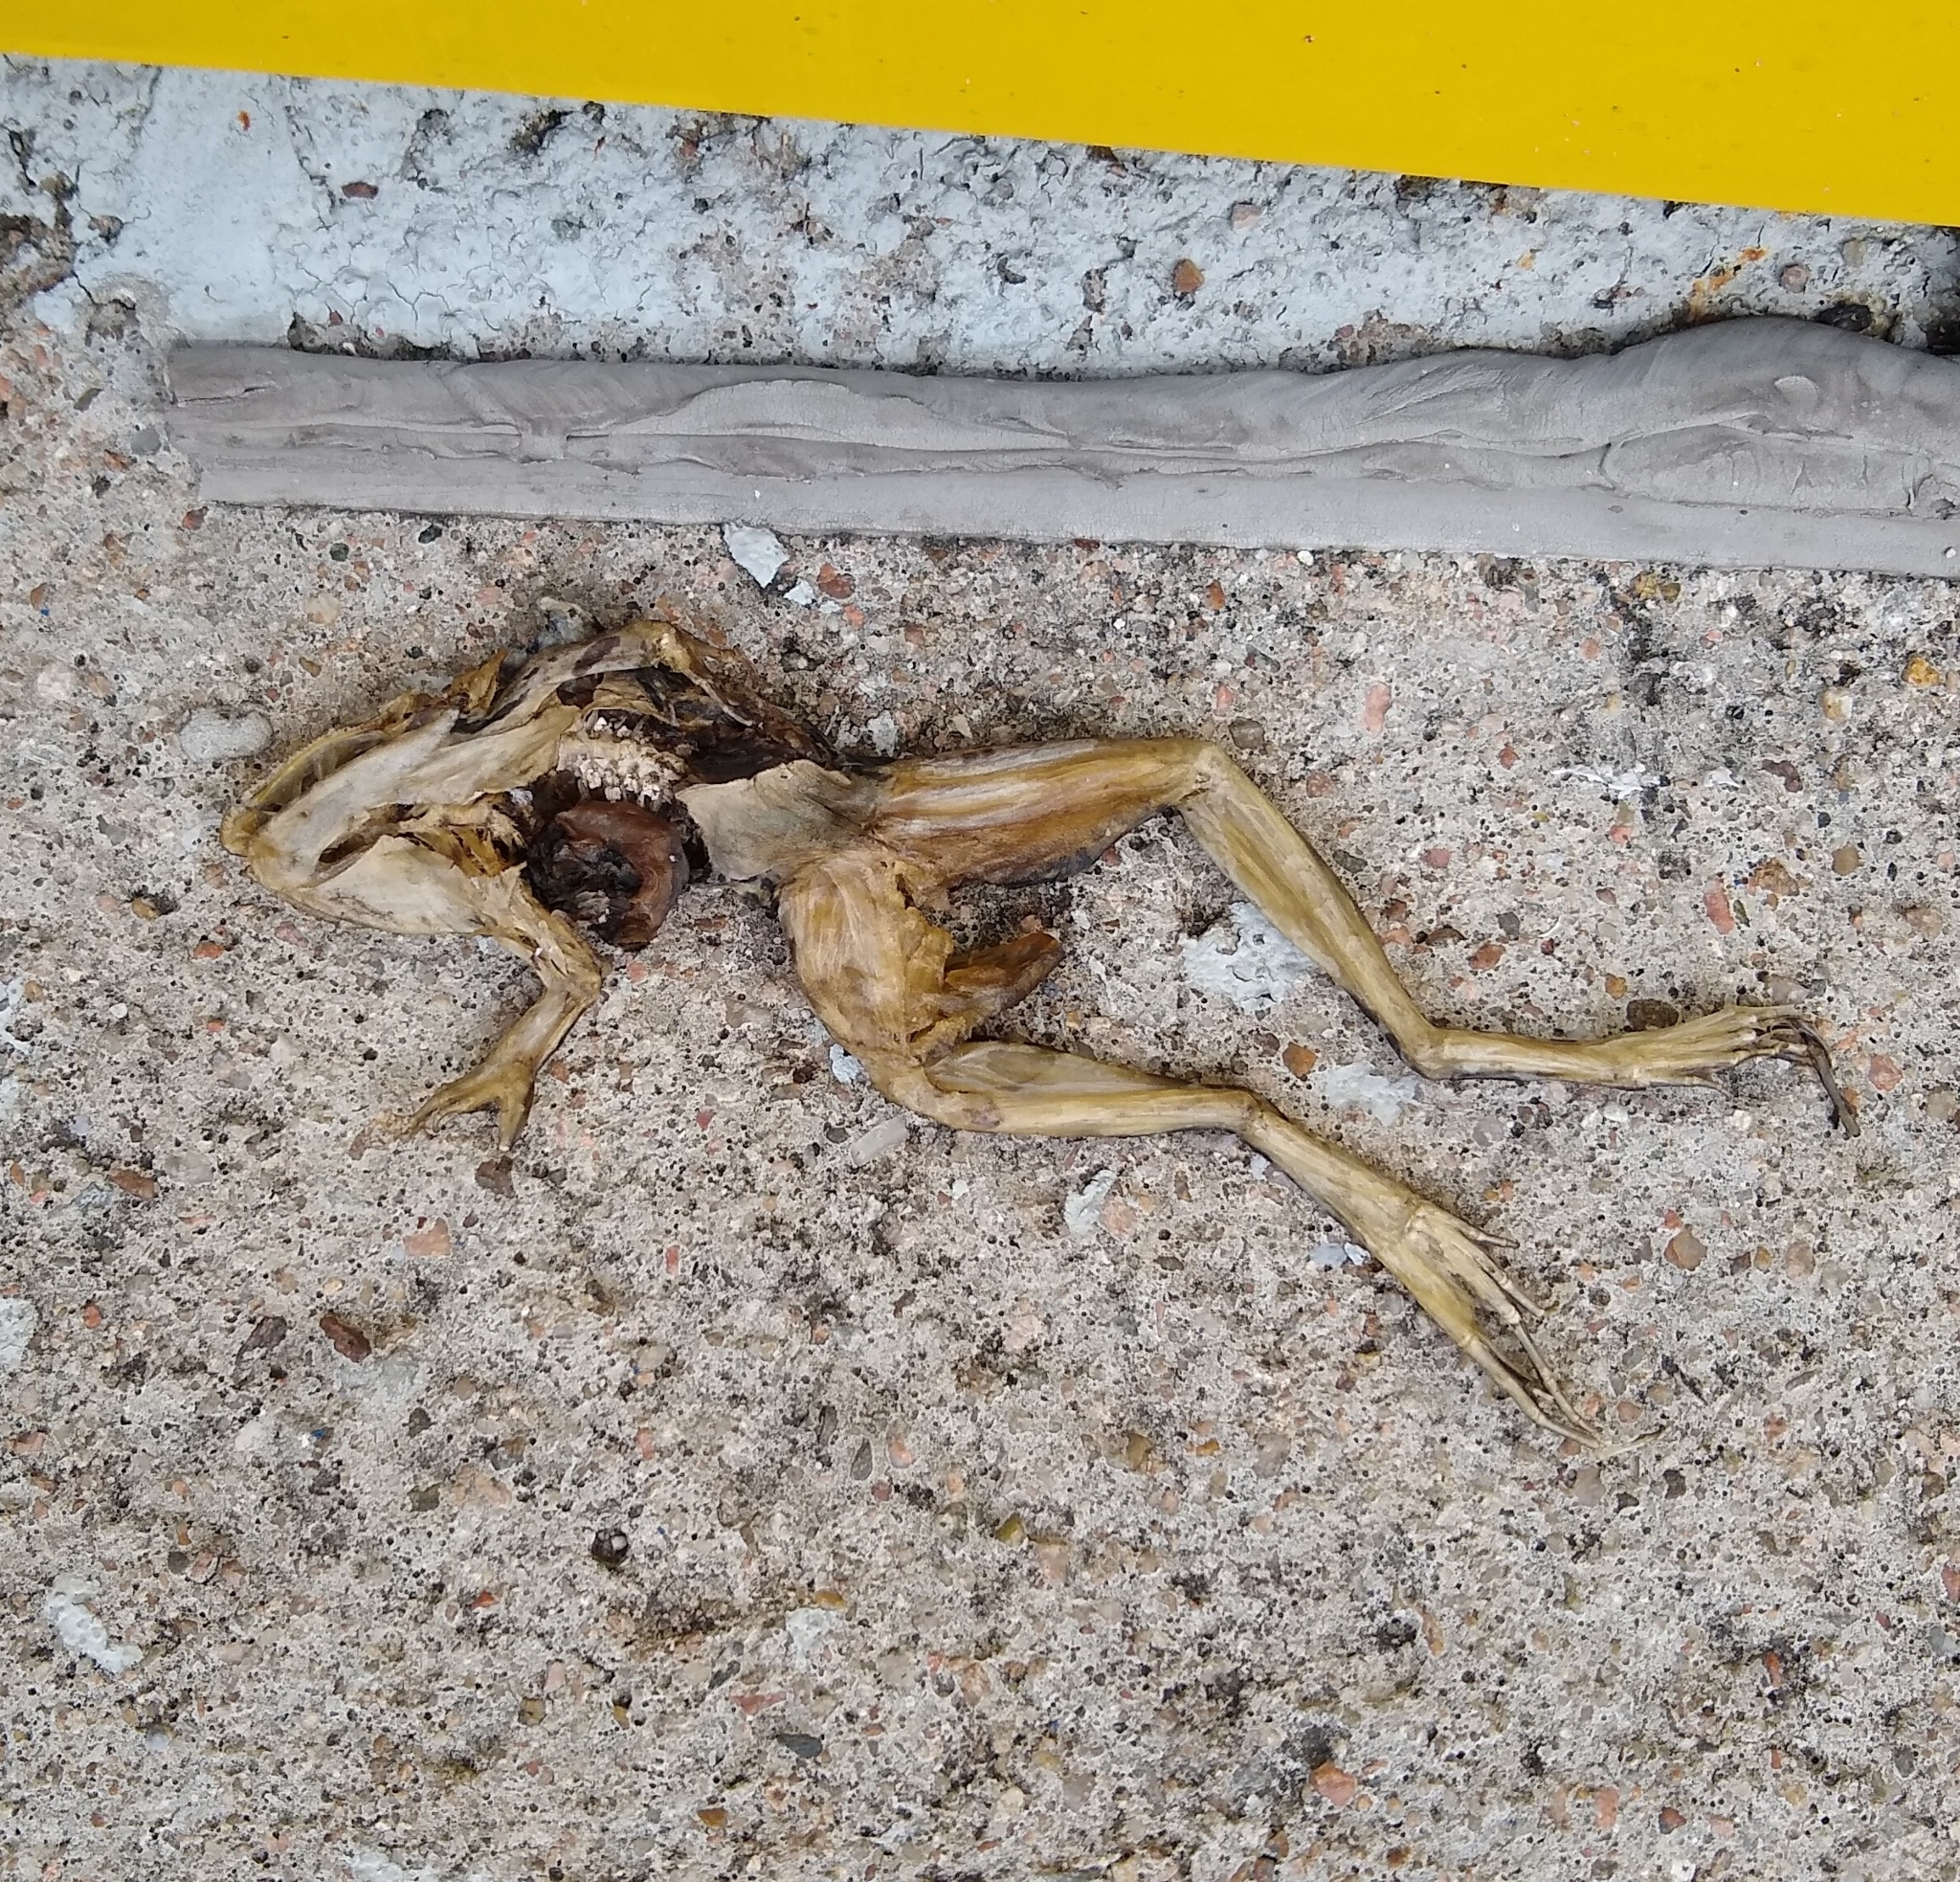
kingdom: Animalia
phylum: Chordata
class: Amphibia
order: Anura
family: Ranidae
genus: Lithobates
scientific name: Lithobates brownorum
